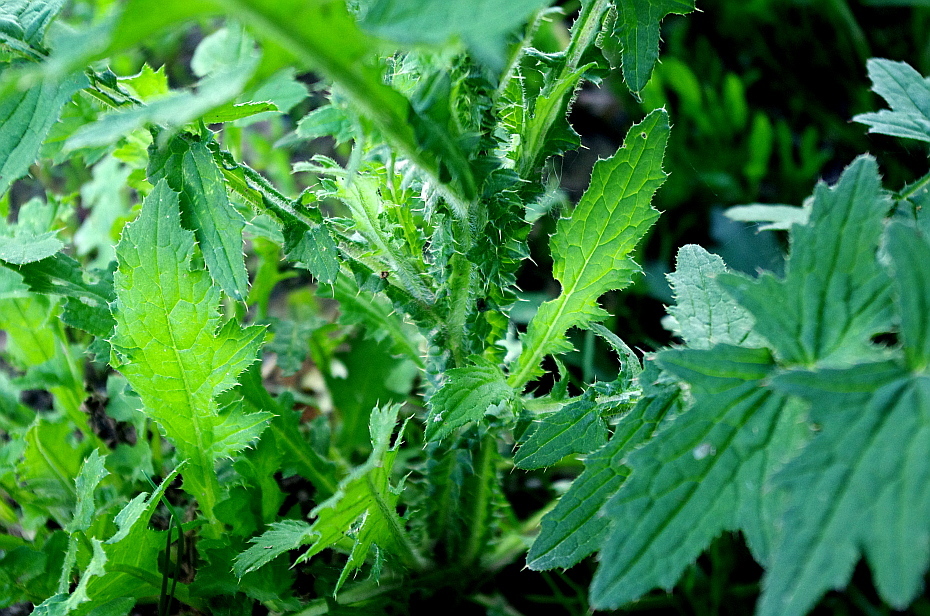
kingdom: Plantae
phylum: Tracheophyta
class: Magnoliopsida
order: Asterales
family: Asteraceae
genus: Carduus
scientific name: Carduus crispus
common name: Welted thistle
